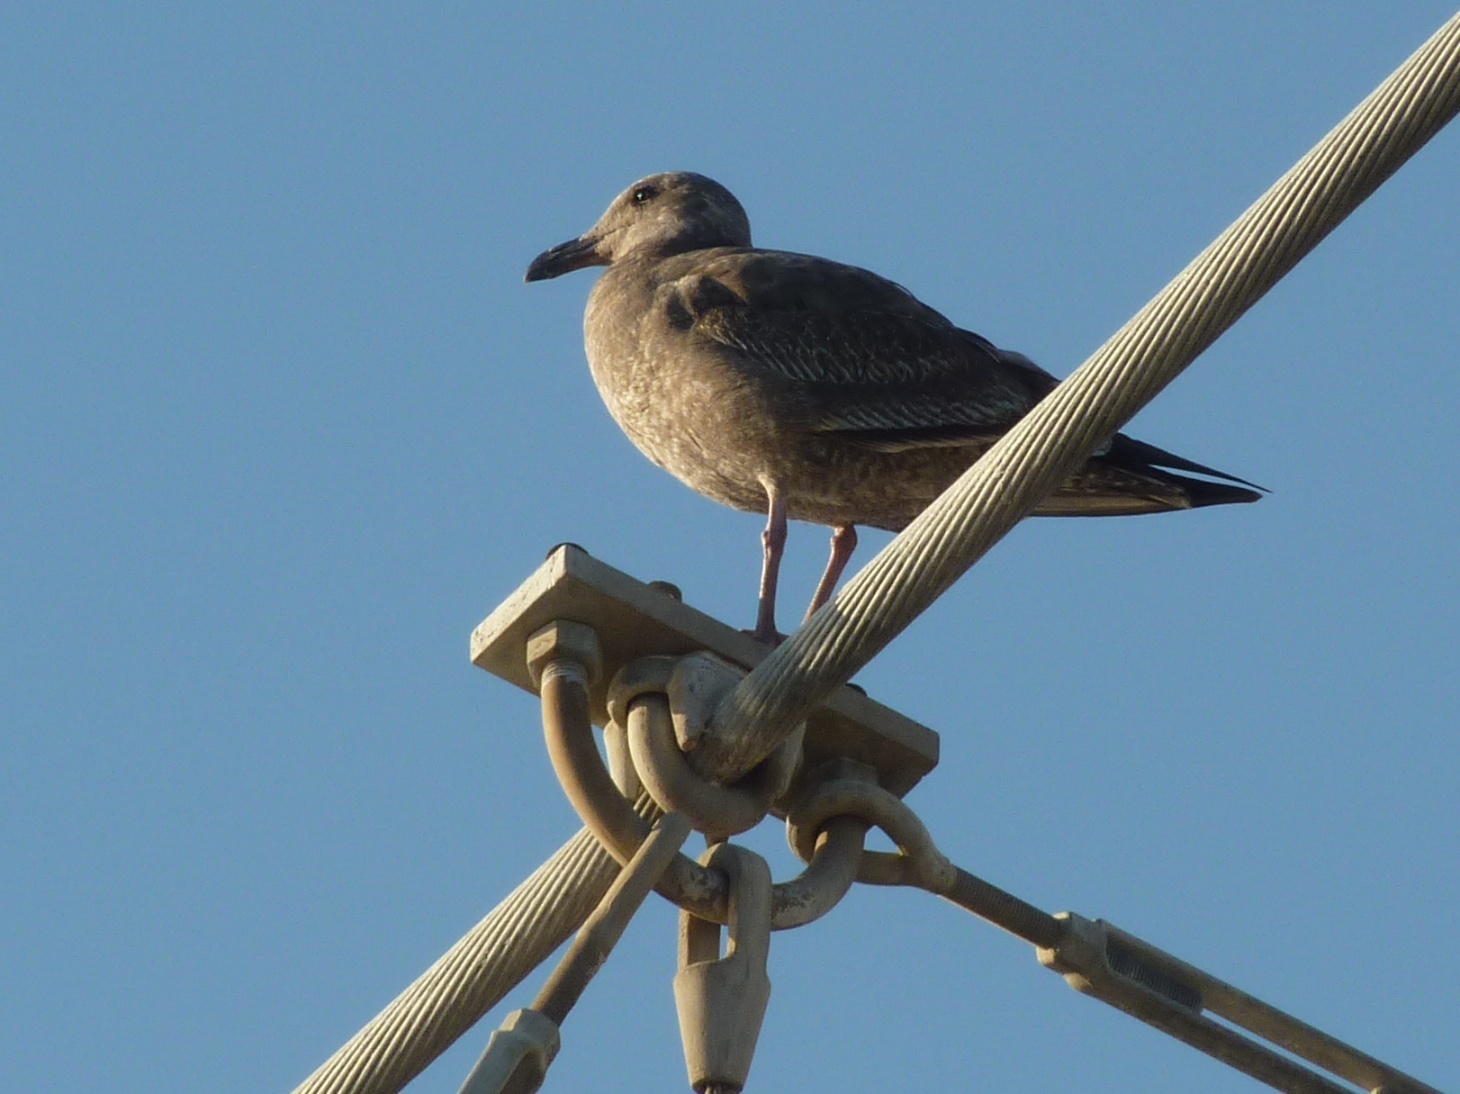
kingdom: Animalia
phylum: Chordata
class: Aves
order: Charadriiformes
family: Laridae
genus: Larus
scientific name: Larus occidentalis
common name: Western gull
